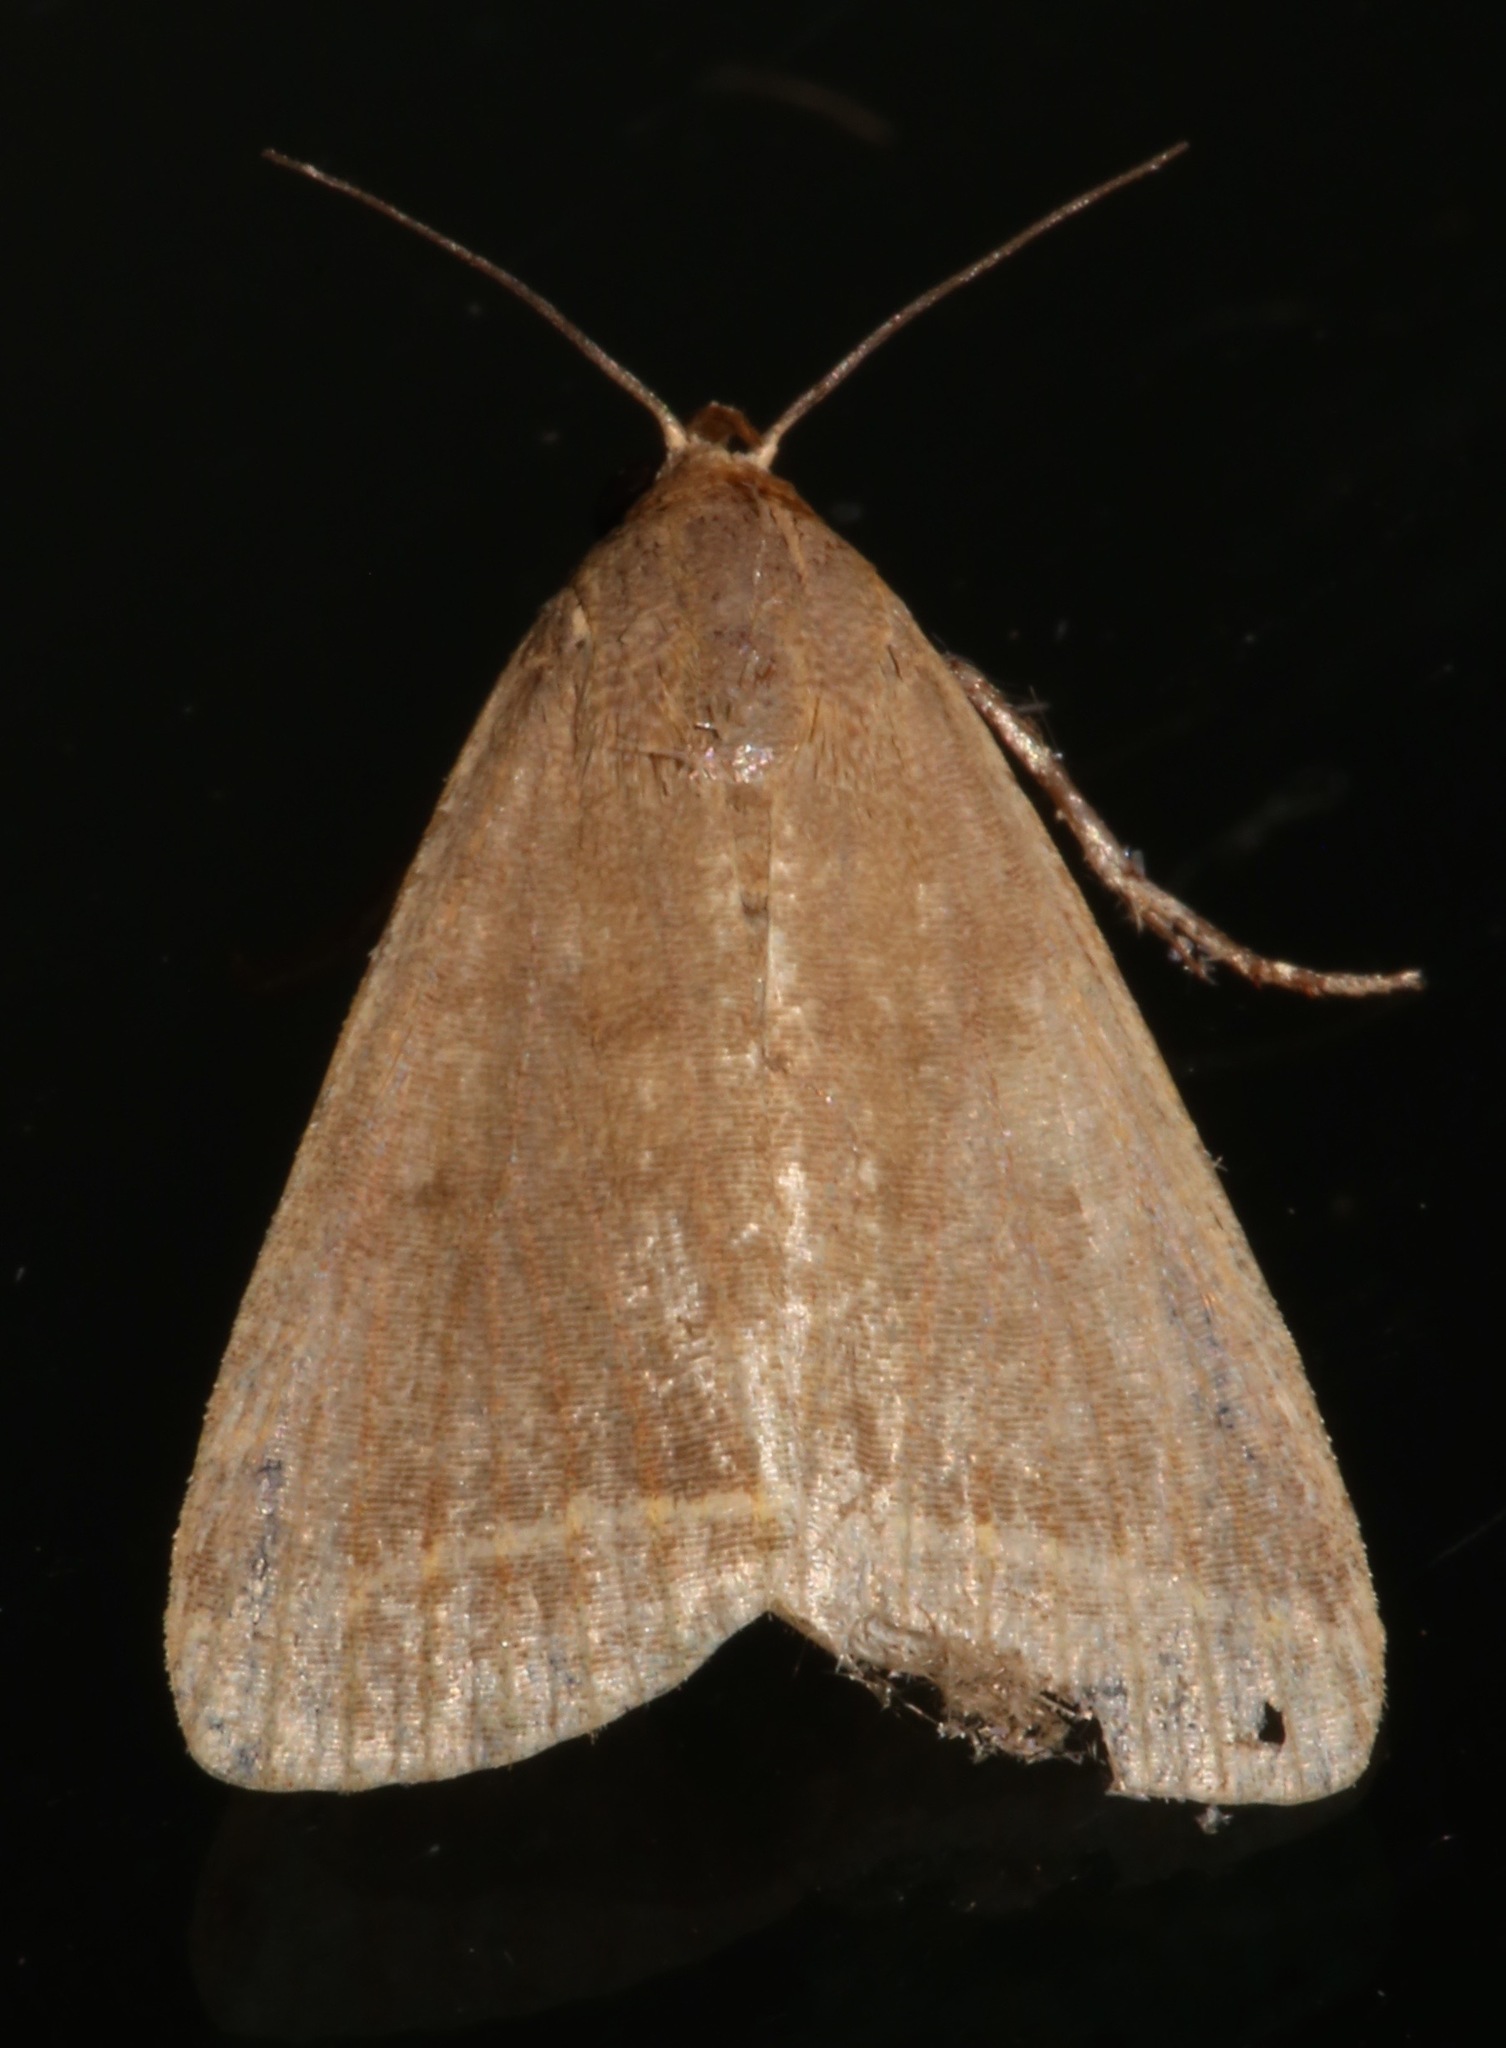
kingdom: Animalia
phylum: Arthropoda
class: Insecta
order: Lepidoptera
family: Erebidae
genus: Simplicia
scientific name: Simplicia cornicalis
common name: Tiki hut litter moth
